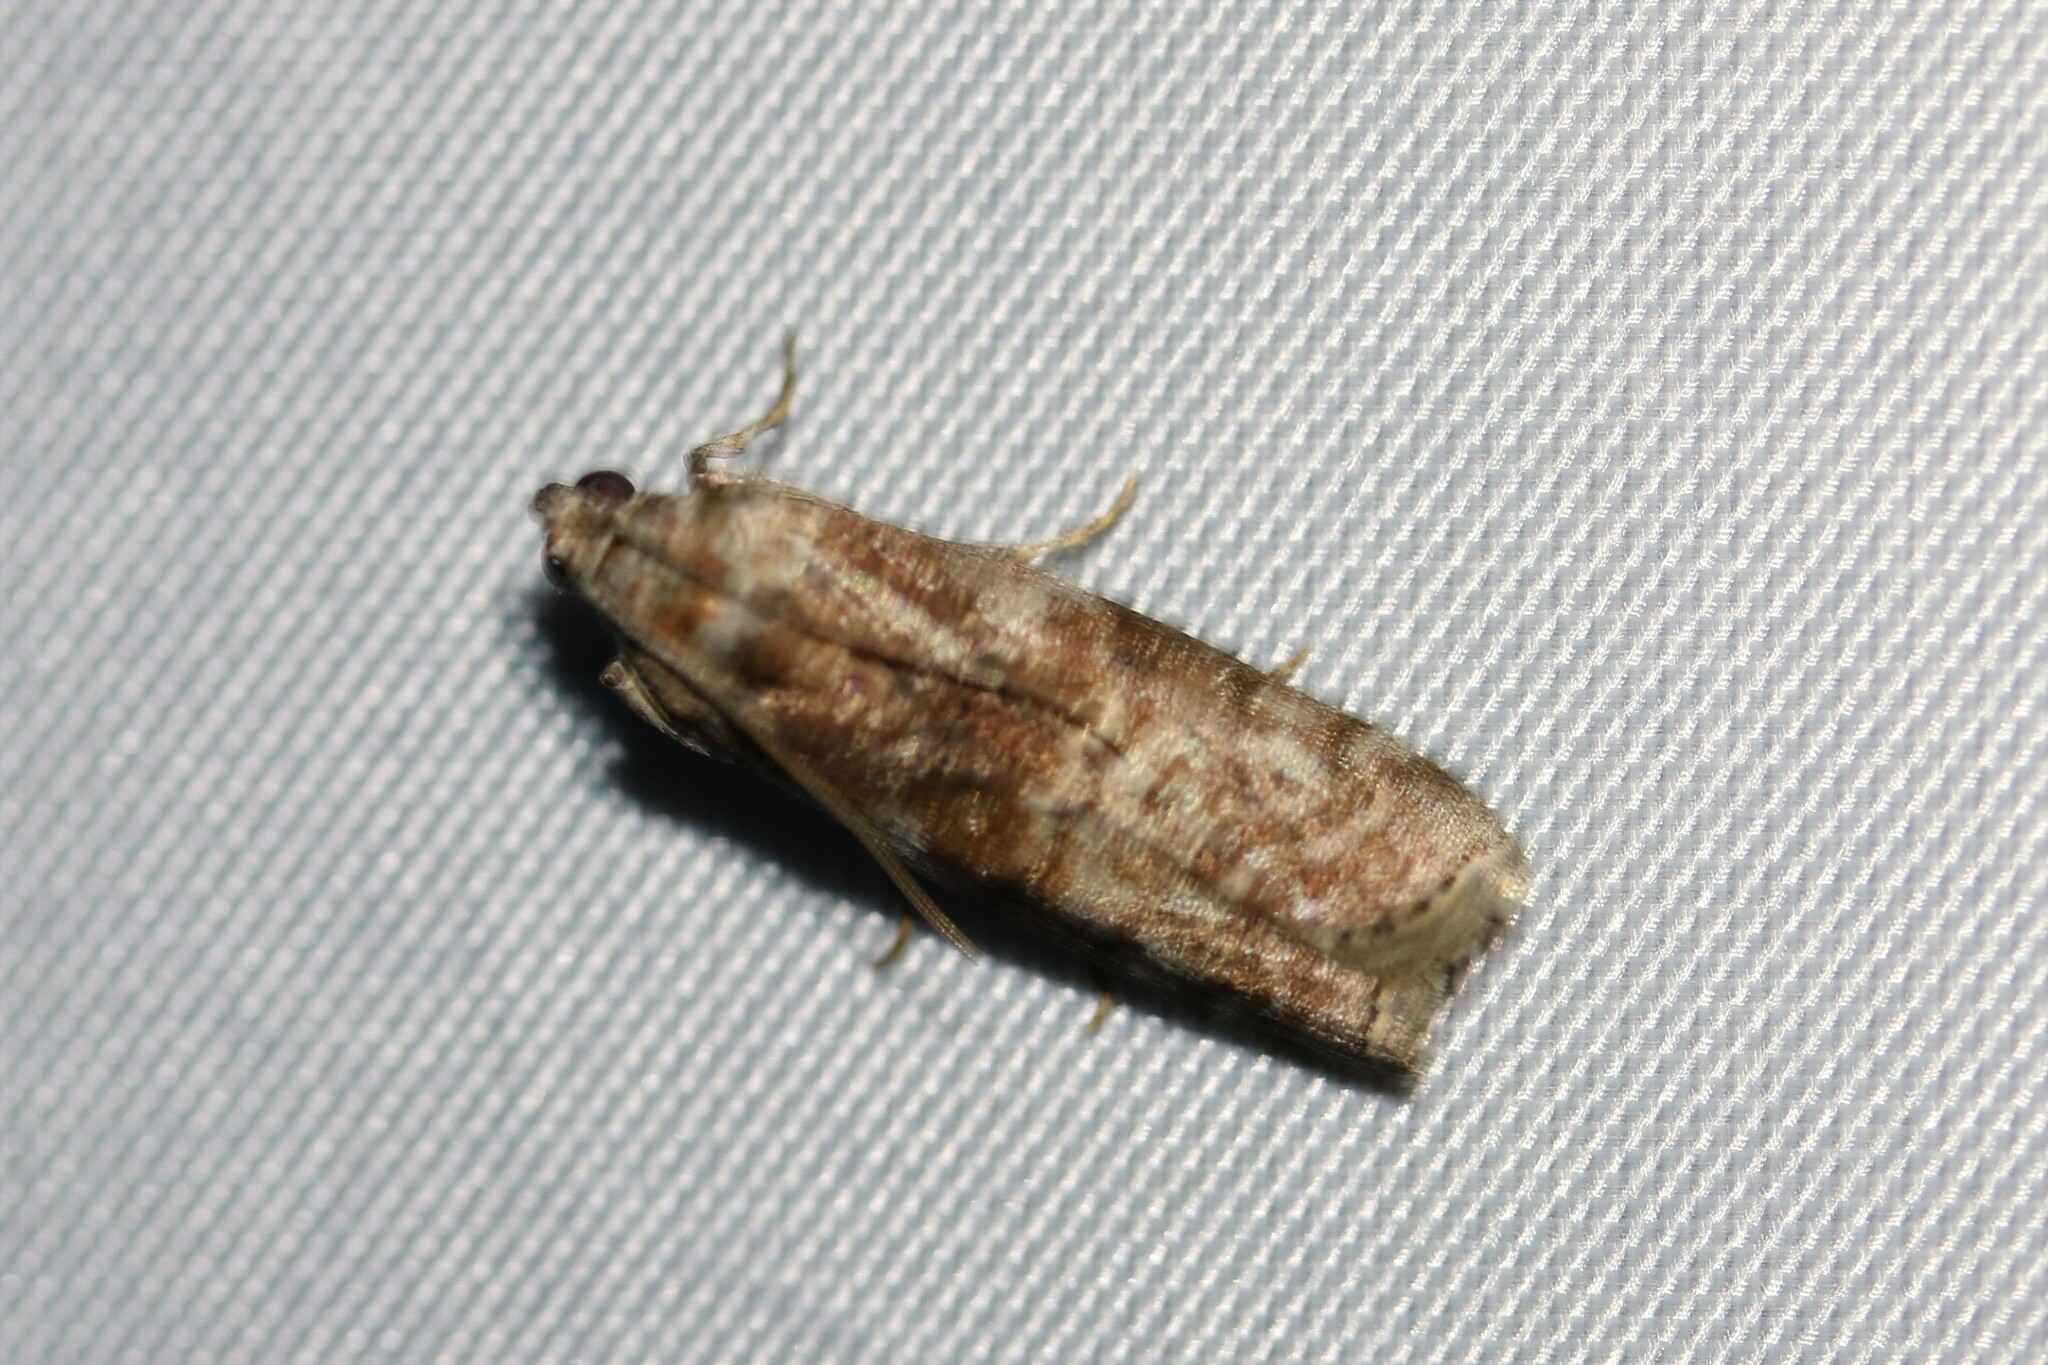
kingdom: Animalia
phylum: Arthropoda
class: Insecta
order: Lepidoptera
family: Pyralidae
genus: Phycita
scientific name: Phycita roborella
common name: Dotted oak knot-horn
